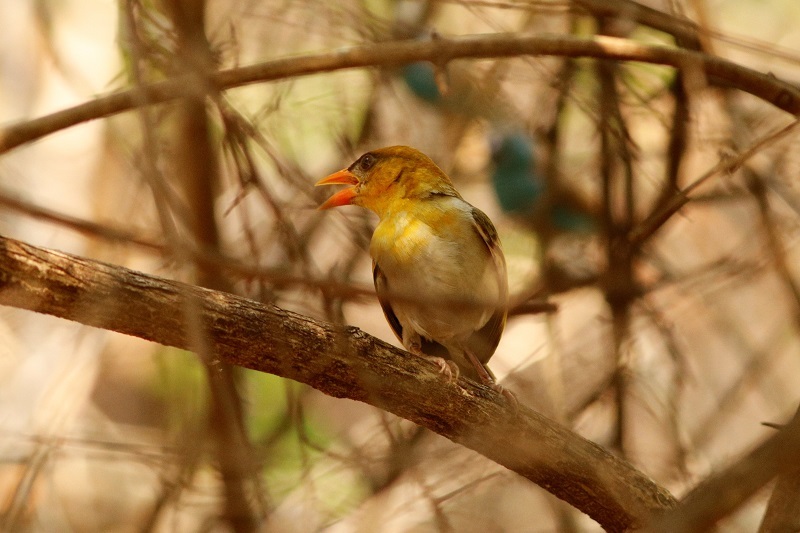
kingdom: Animalia
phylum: Chordata
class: Aves
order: Passeriformes
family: Ploceidae
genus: Anaplectes
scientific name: Anaplectes rubriceps
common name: Red-headed weaver
